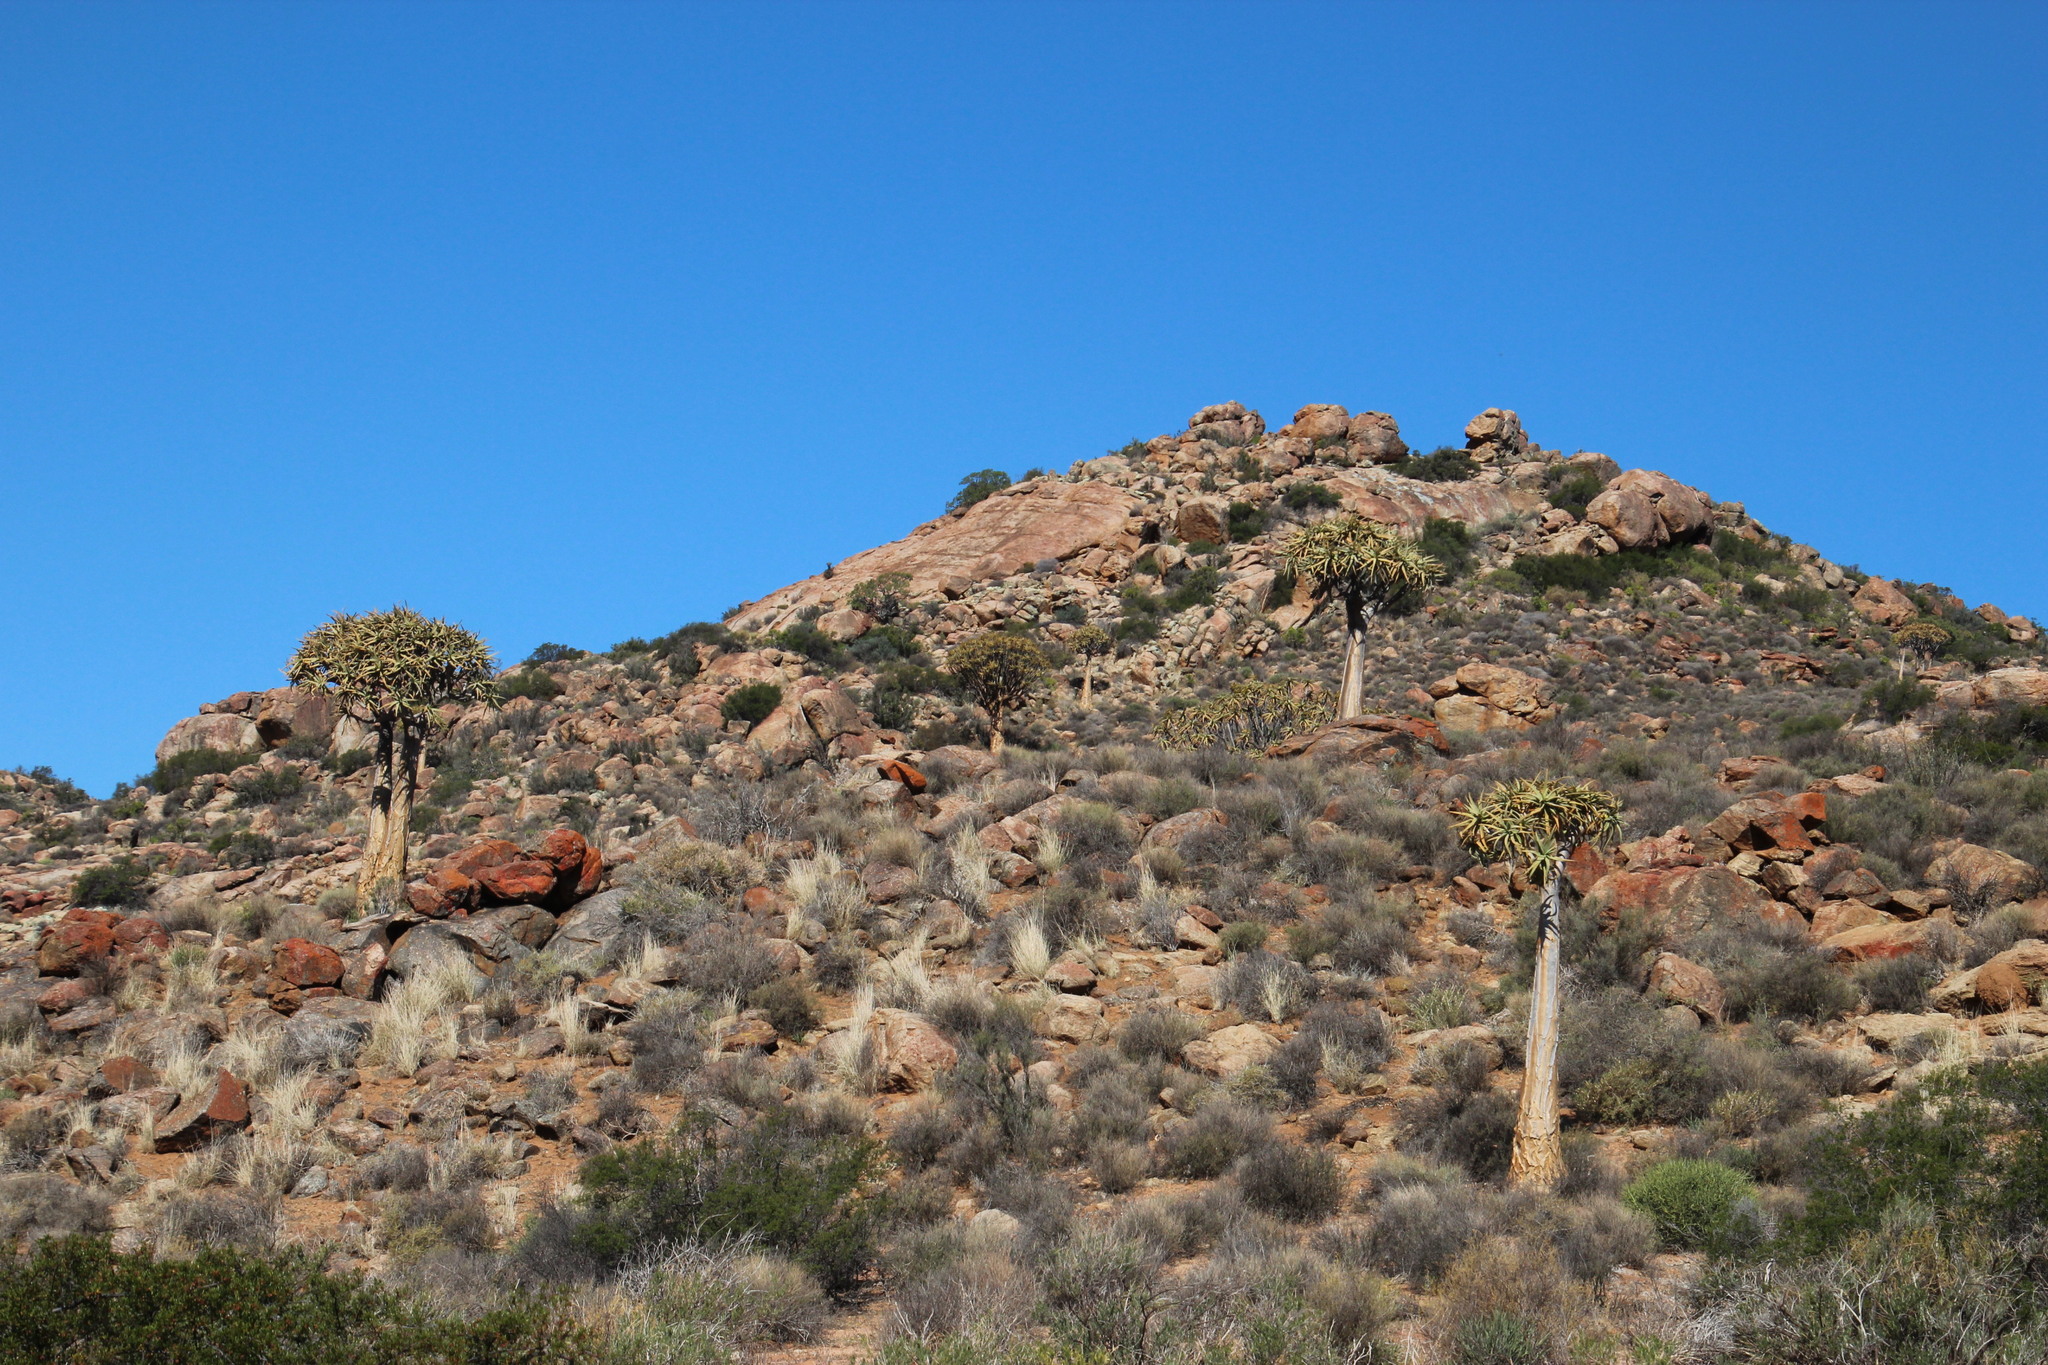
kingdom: Plantae
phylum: Tracheophyta
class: Liliopsida
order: Asparagales
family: Asphodelaceae
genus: Aloidendron
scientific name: Aloidendron dichotomum
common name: Quiver tree
